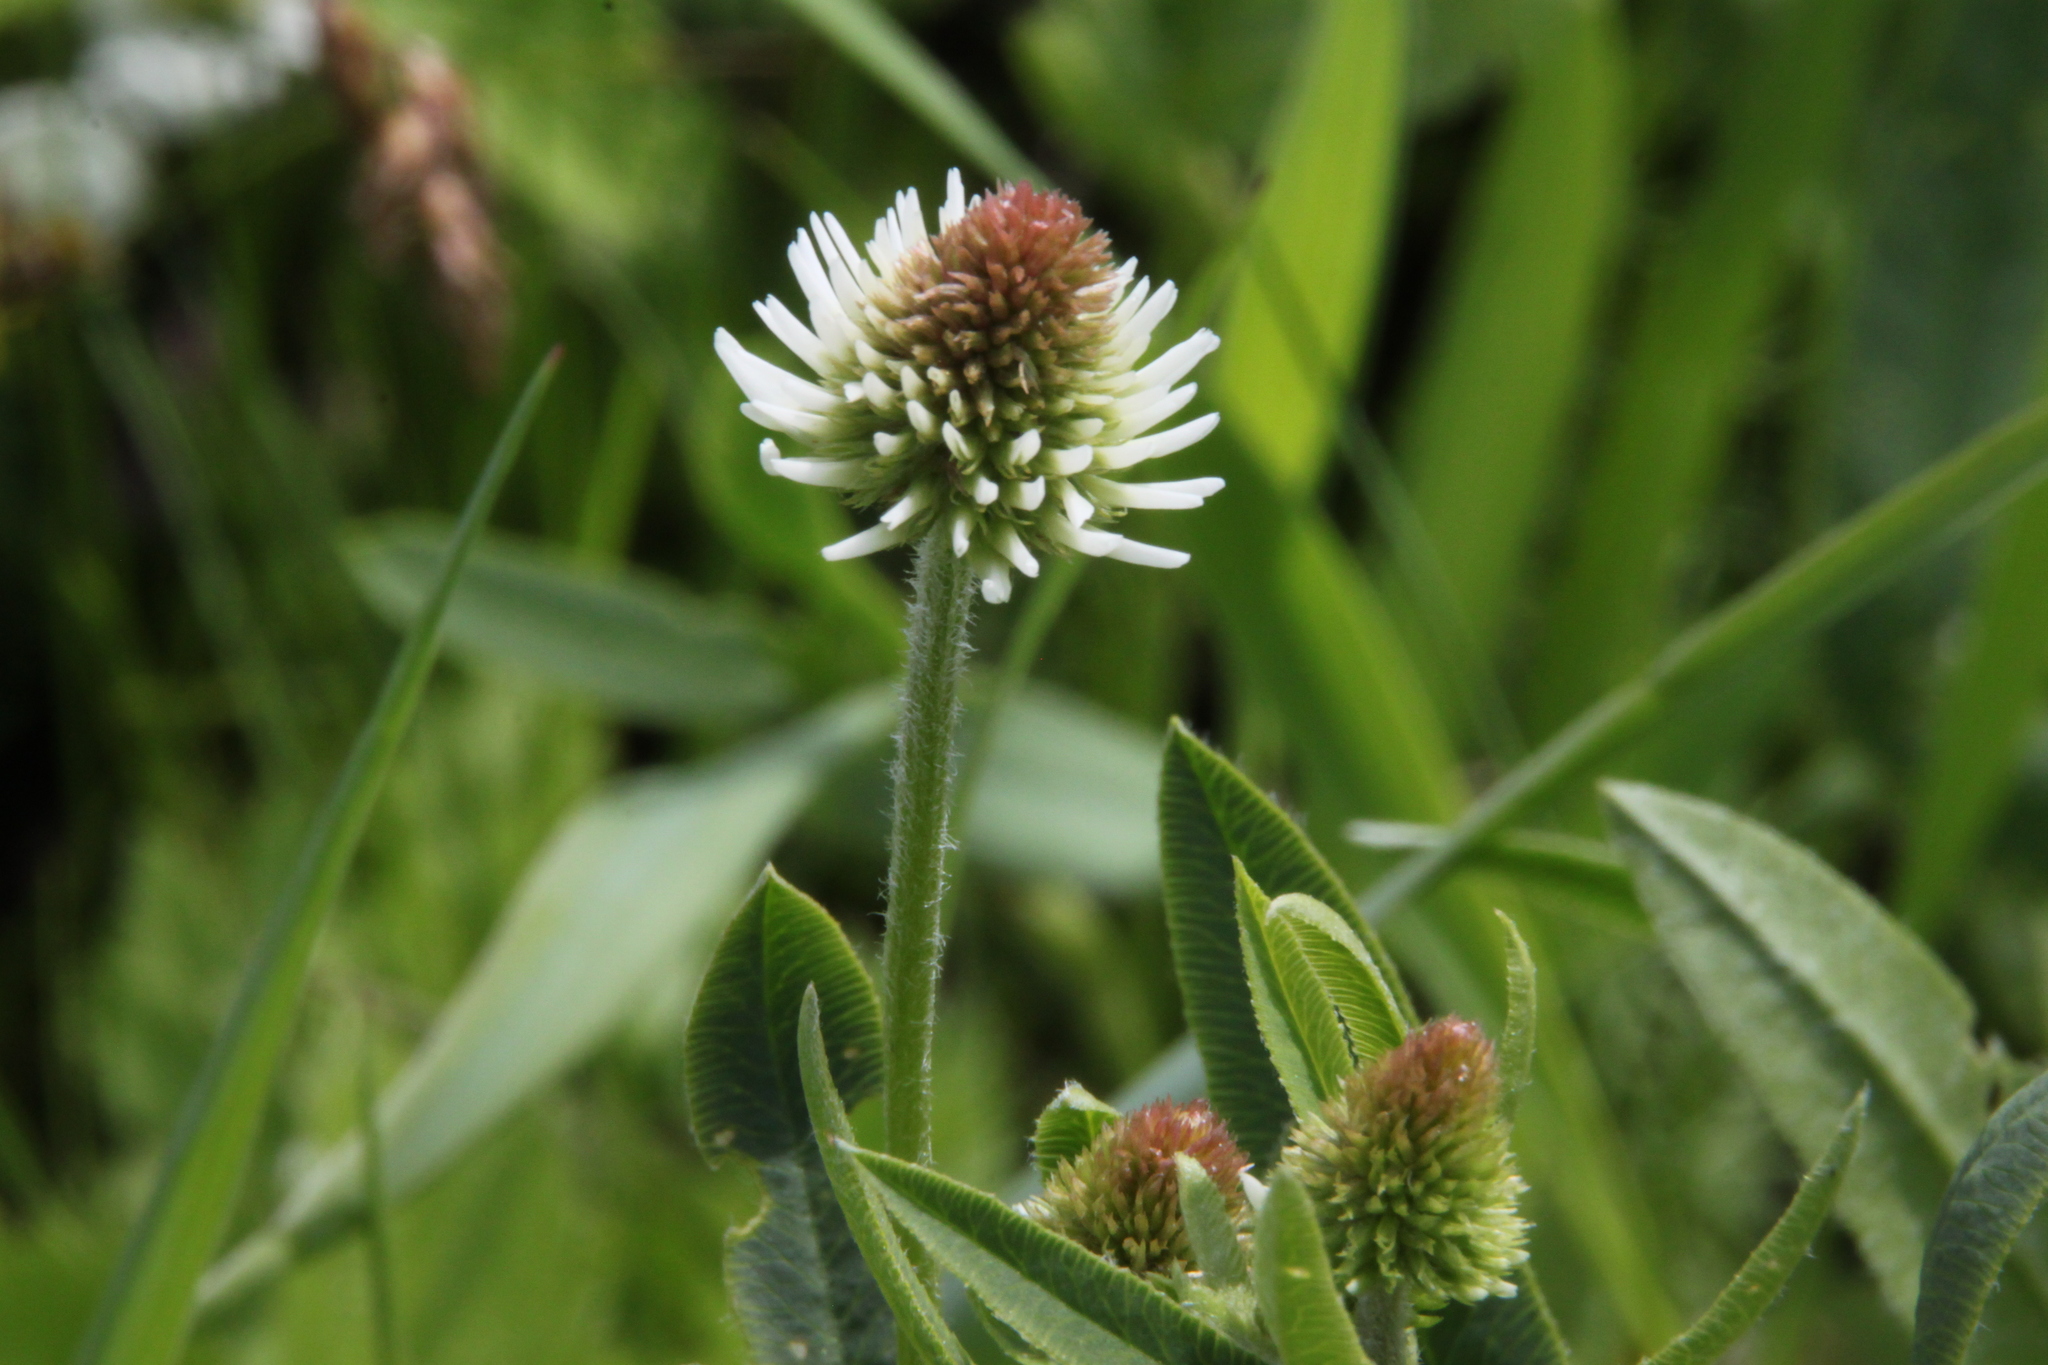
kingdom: Plantae
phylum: Tracheophyta
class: Magnoliopsida
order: Fabales
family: Fabaceae
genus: Trifolium
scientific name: Trifolium montanum
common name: Mountain clover
